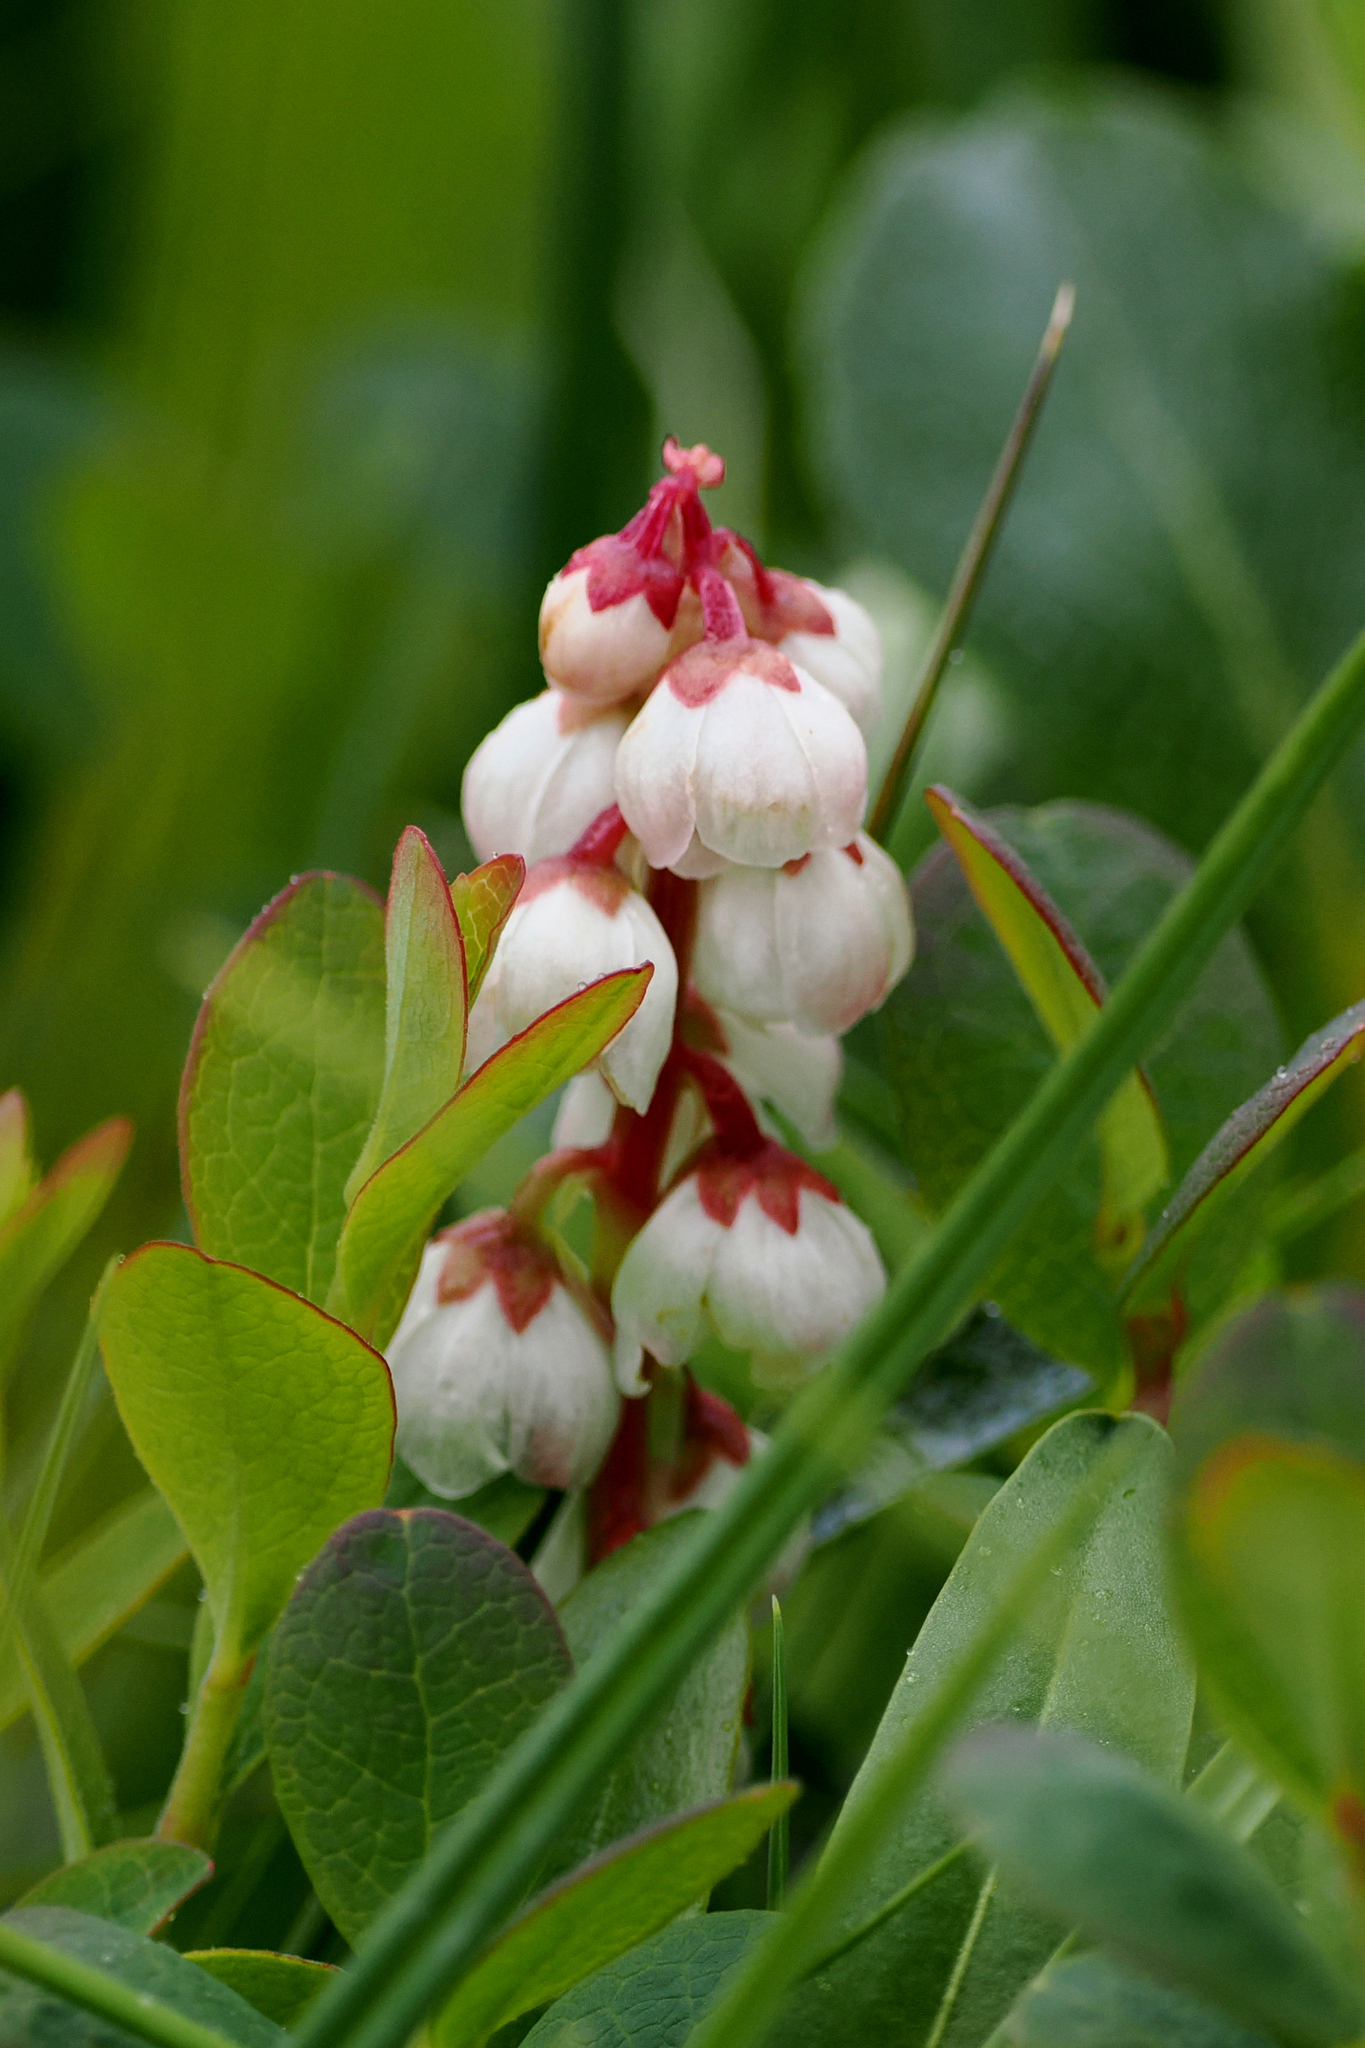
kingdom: Plantae
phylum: Tracheophyta
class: Magnoliopsida
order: Ericales
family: Ericaceae
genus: Pyrola
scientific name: Pyrola minor
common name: Common wintergreen
